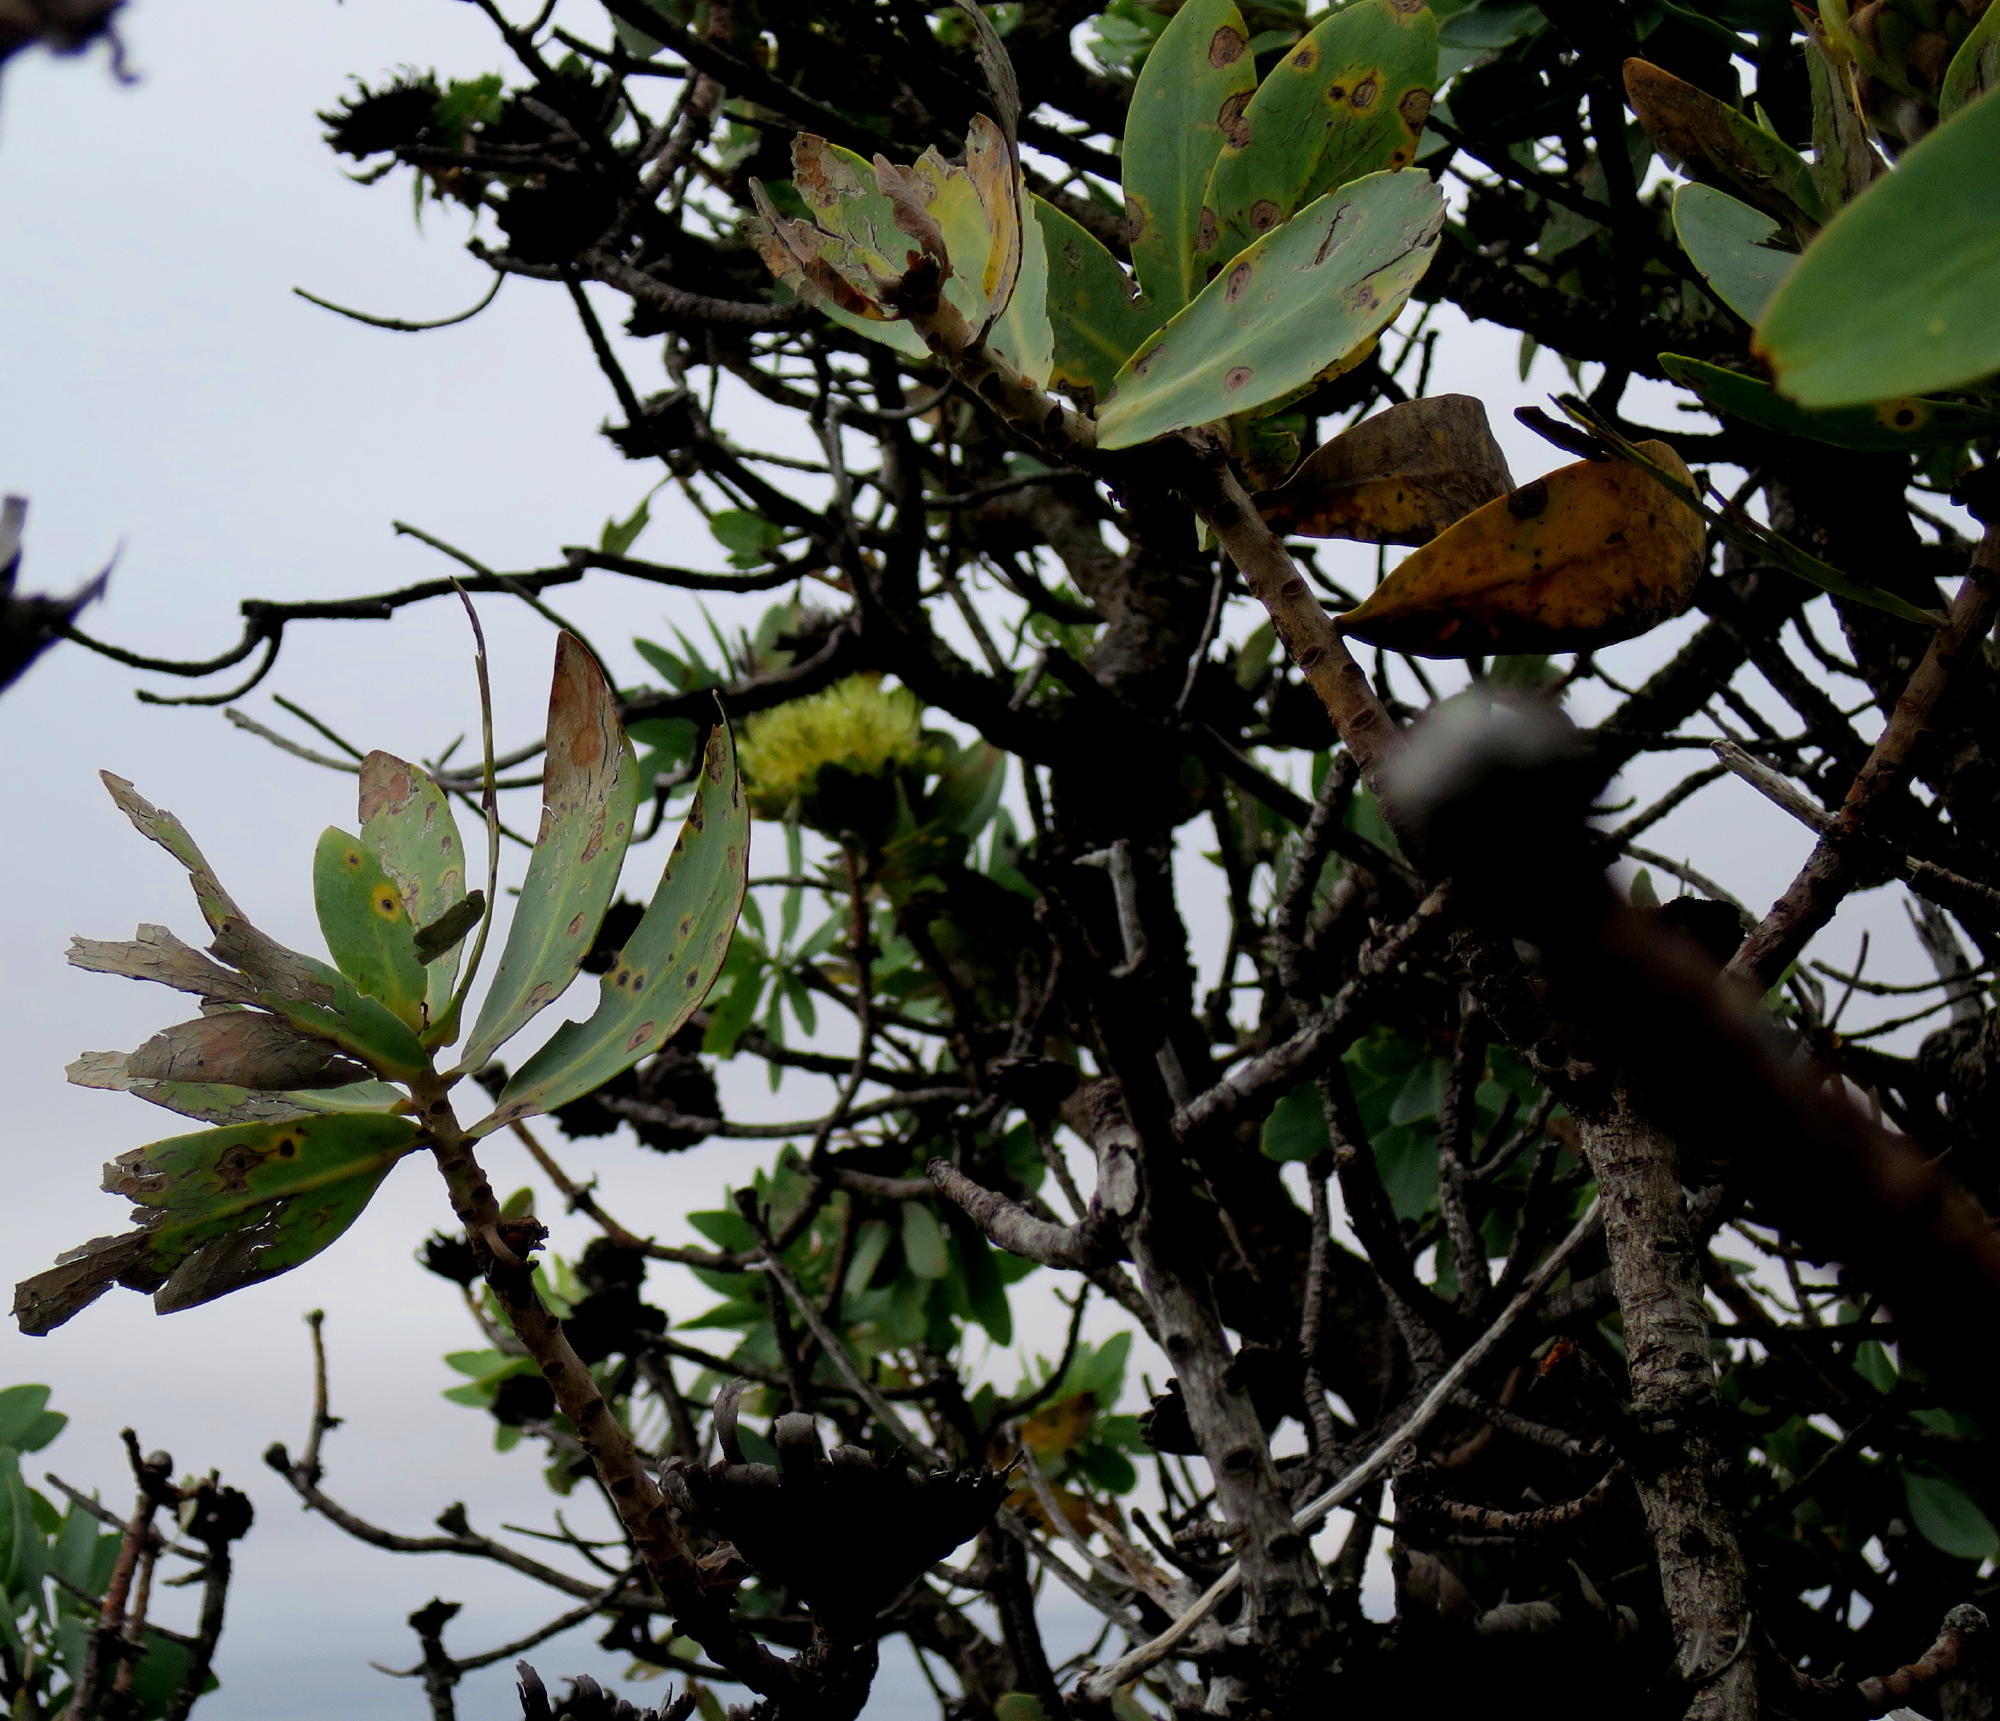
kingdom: Plantae
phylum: Tracheophyta
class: Magnoliopsida
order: Proteales
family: Proteaceae
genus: Protea
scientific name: Protea nitida
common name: Tree protea
